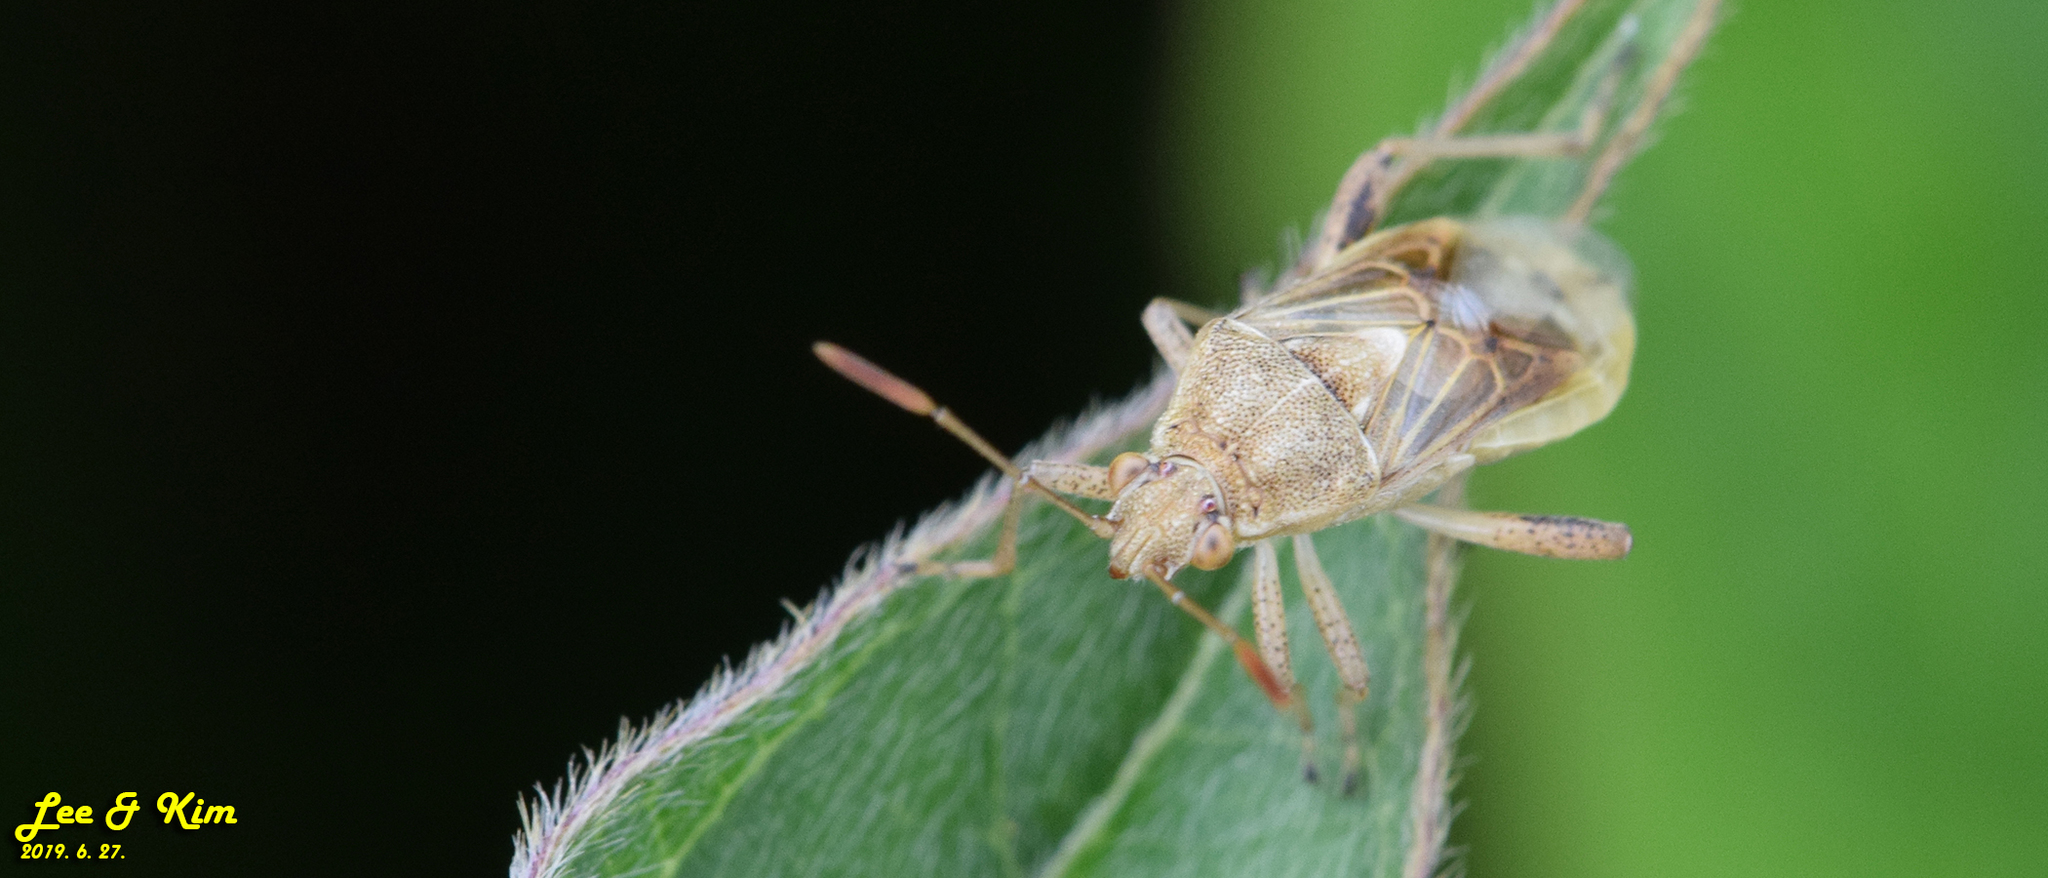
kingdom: Animalia
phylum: Arthropoda
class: Insecta
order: Hemiptera
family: Rhopalidae
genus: Stictopleurus
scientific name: Stictopleurus minutus
